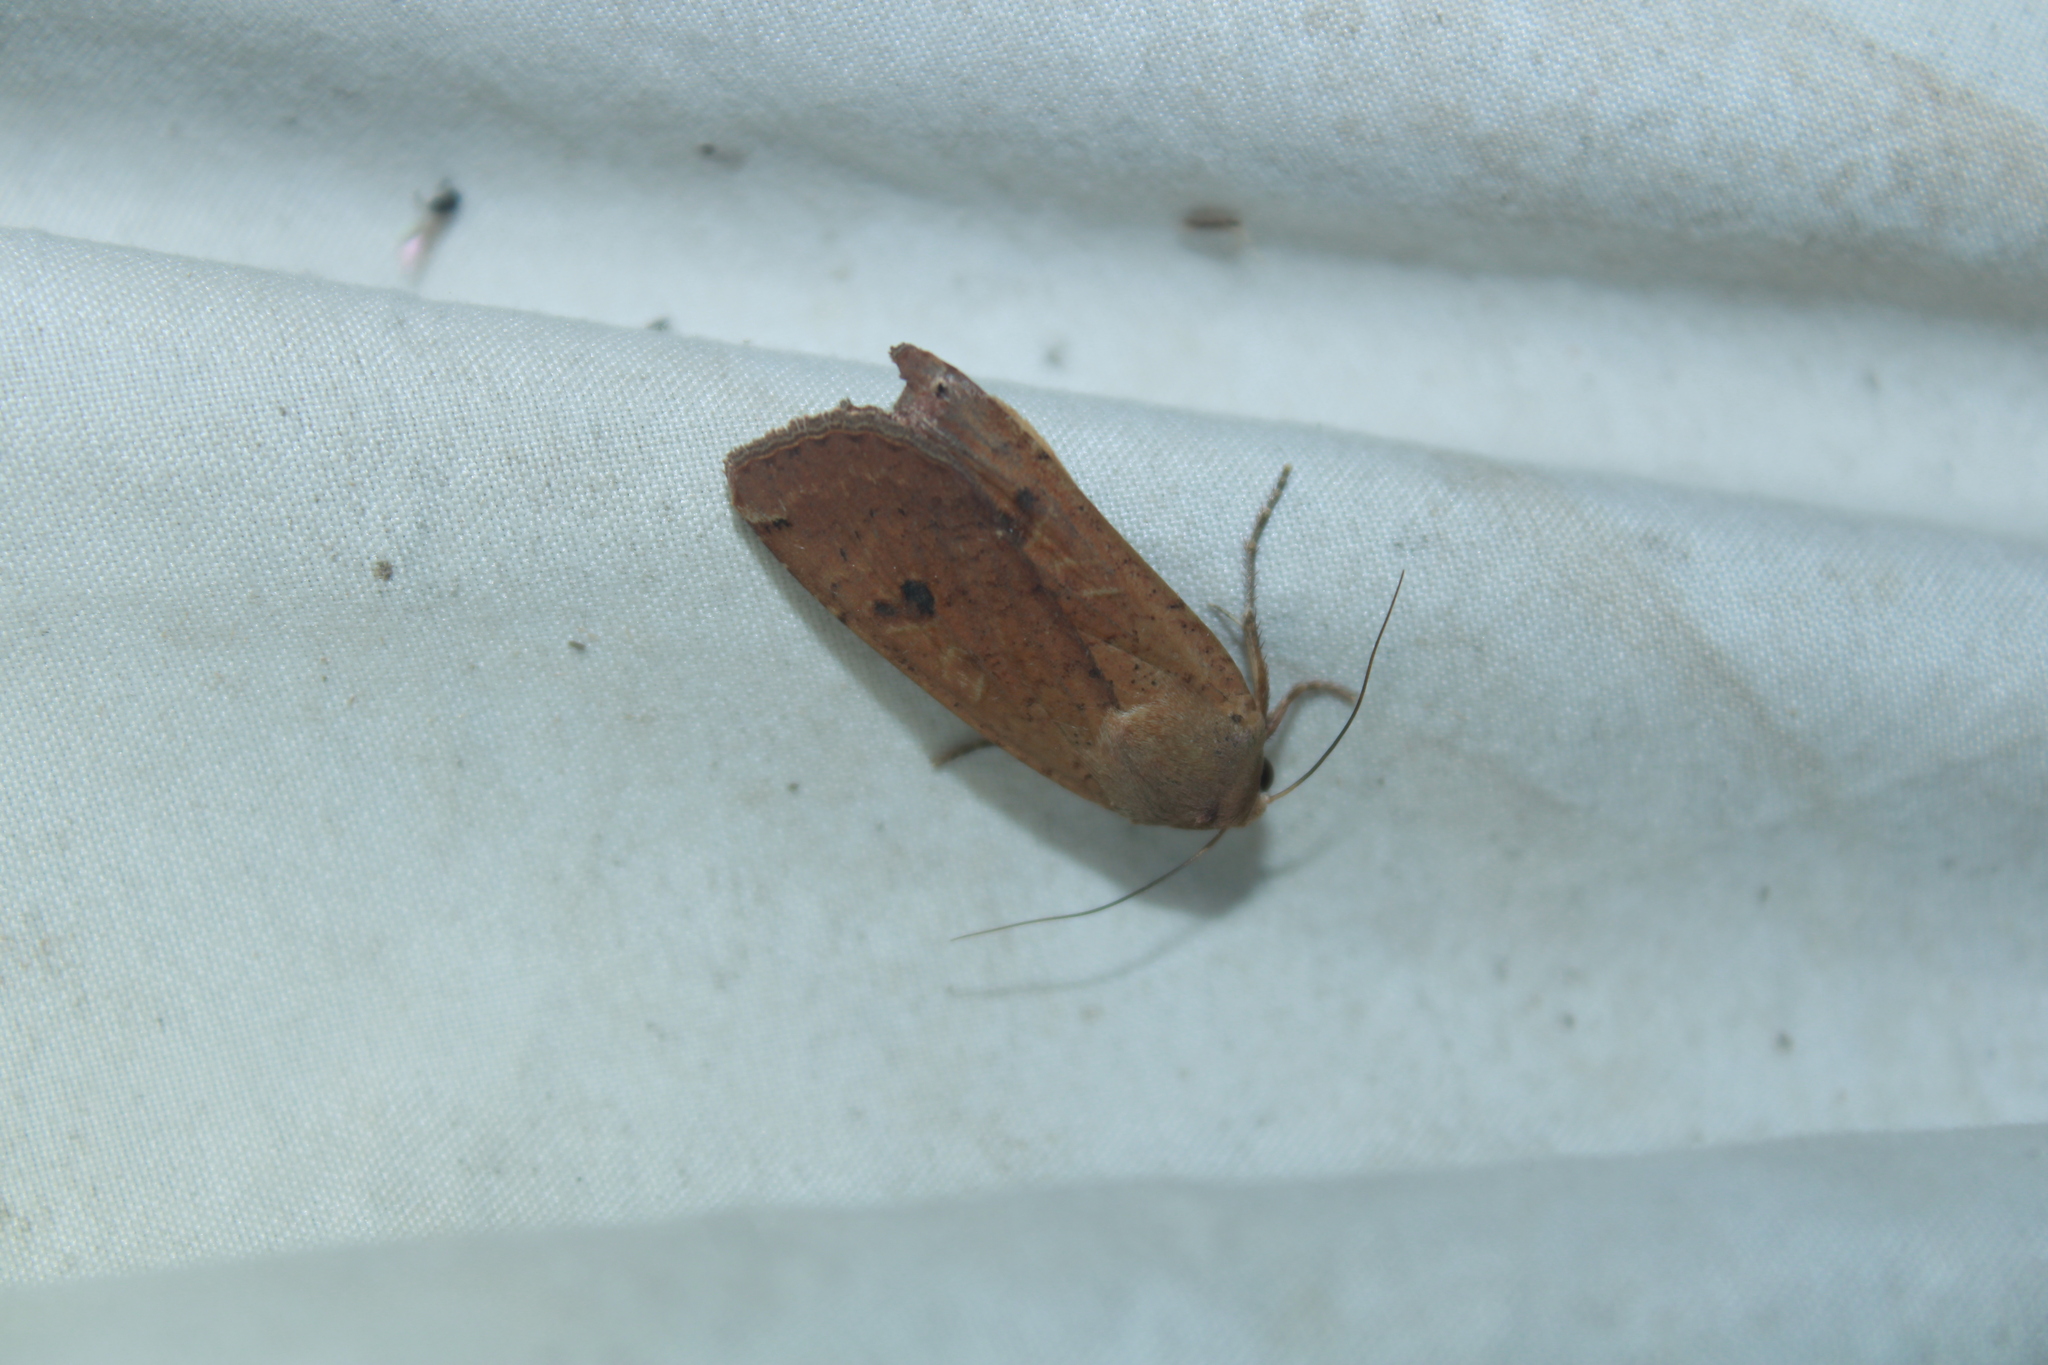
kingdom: Animalia
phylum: Arthropoda
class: Insecta
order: Lepidoptera
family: Noctuidae
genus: Noctua
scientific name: Noctua pronuba
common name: Large yellow underwing
